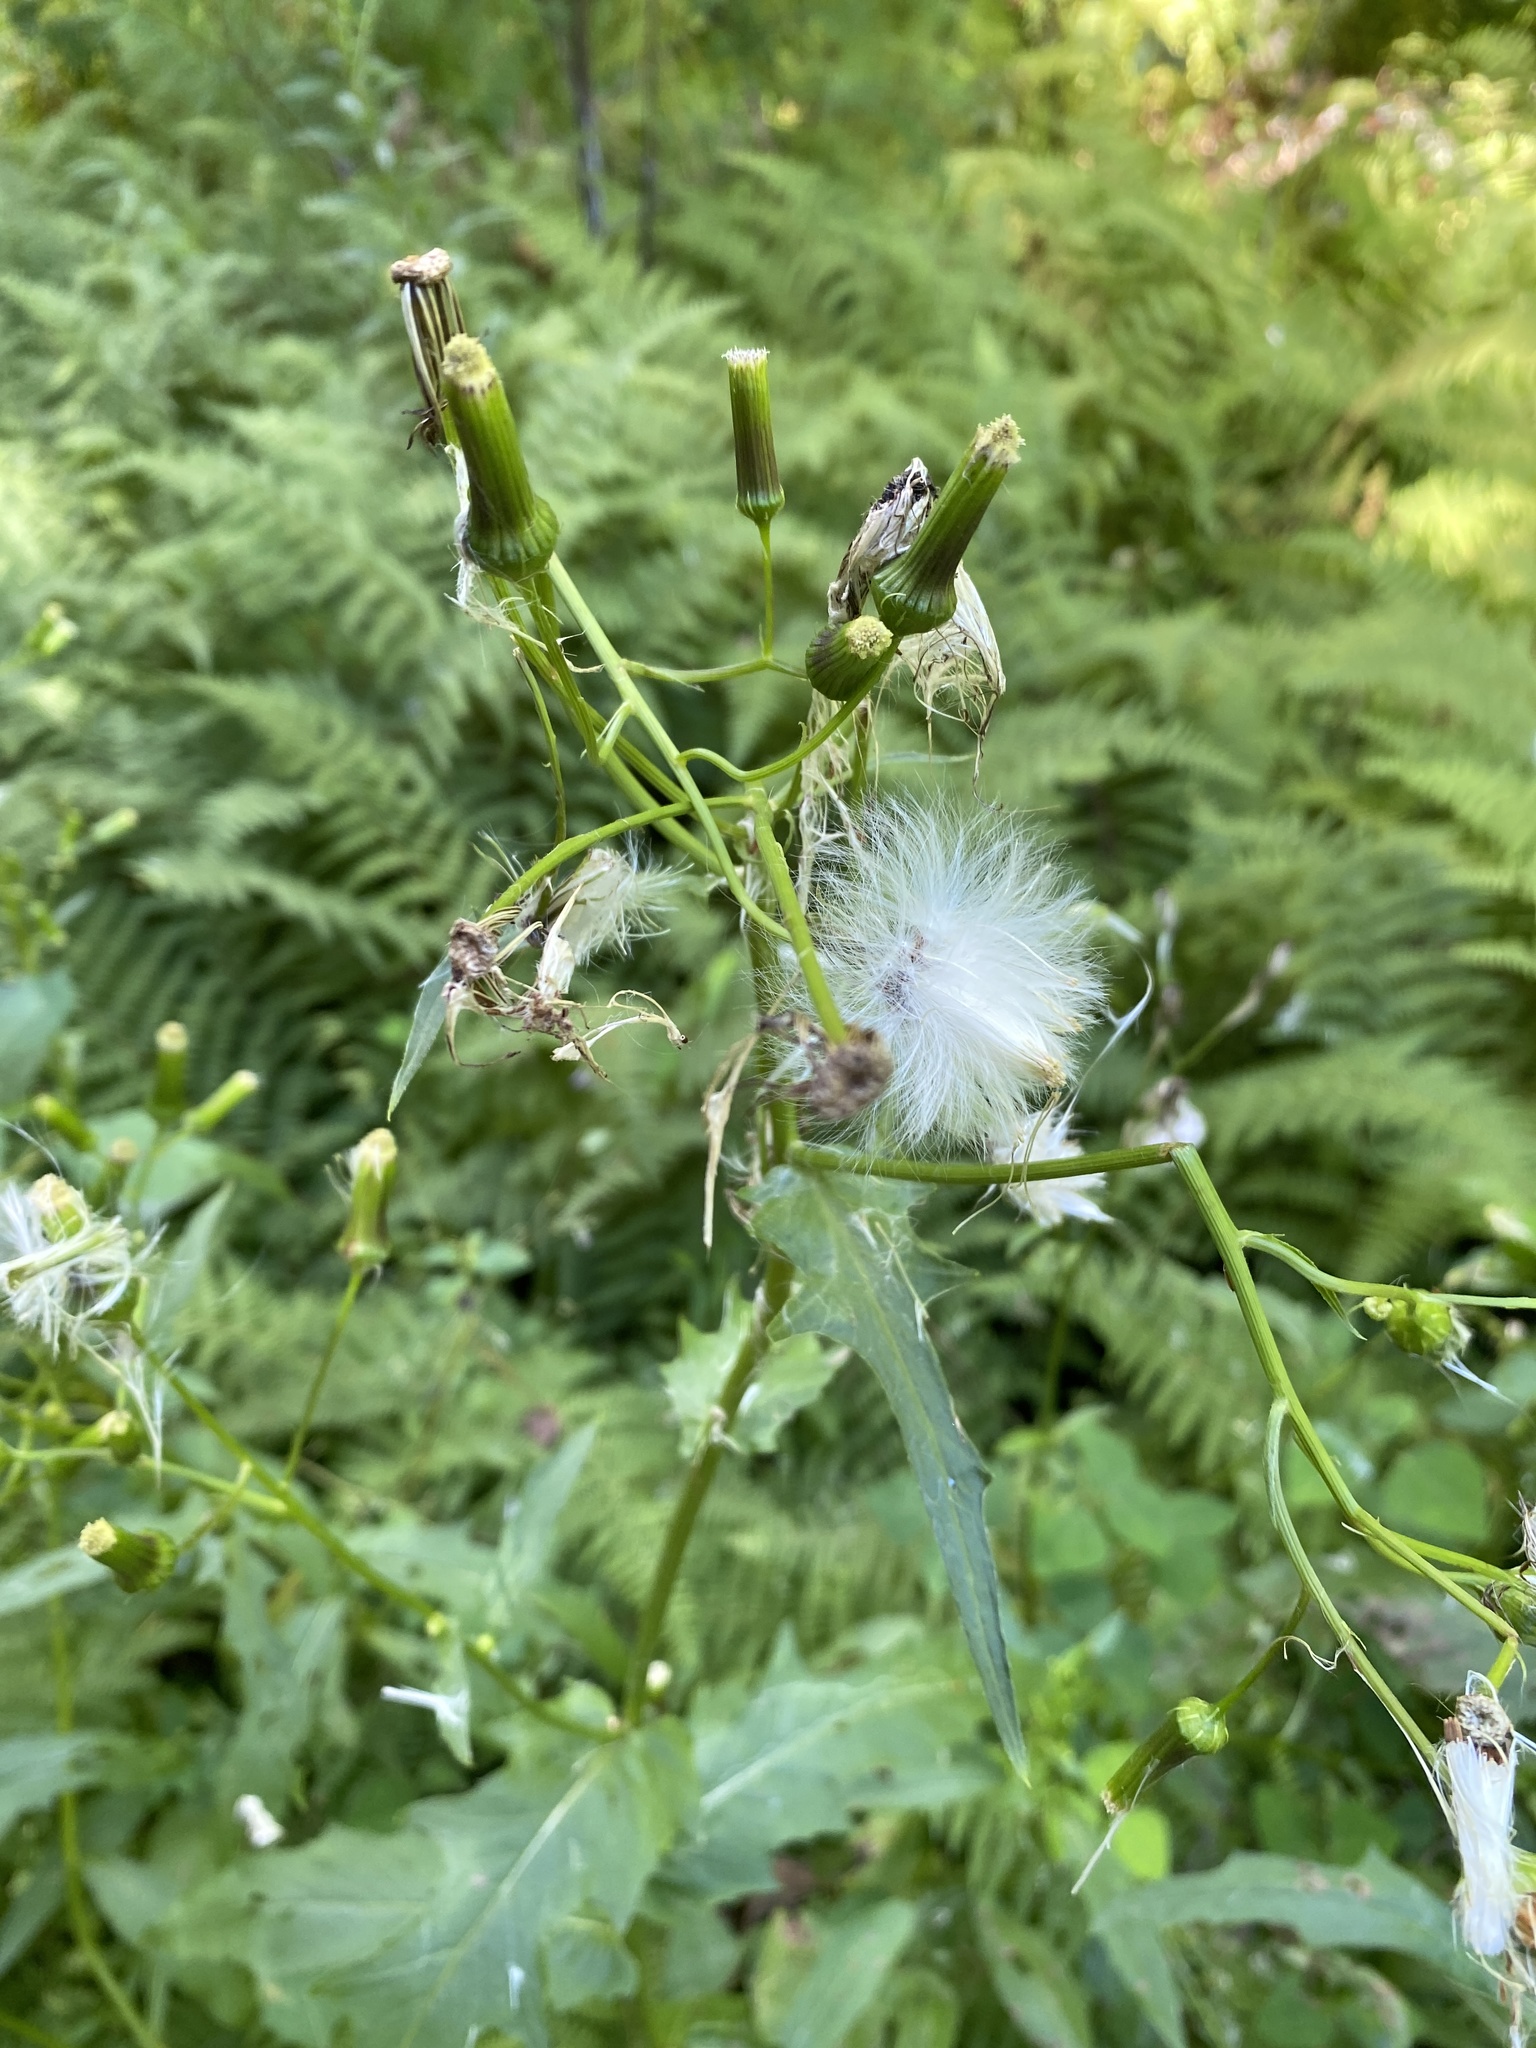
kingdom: Plantae
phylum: Tracheophyta
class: Magnoliopsida
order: Asterales
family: Asteraceae
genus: Erechtites
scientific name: Erechtites hieraciifolius
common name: American burnweed
